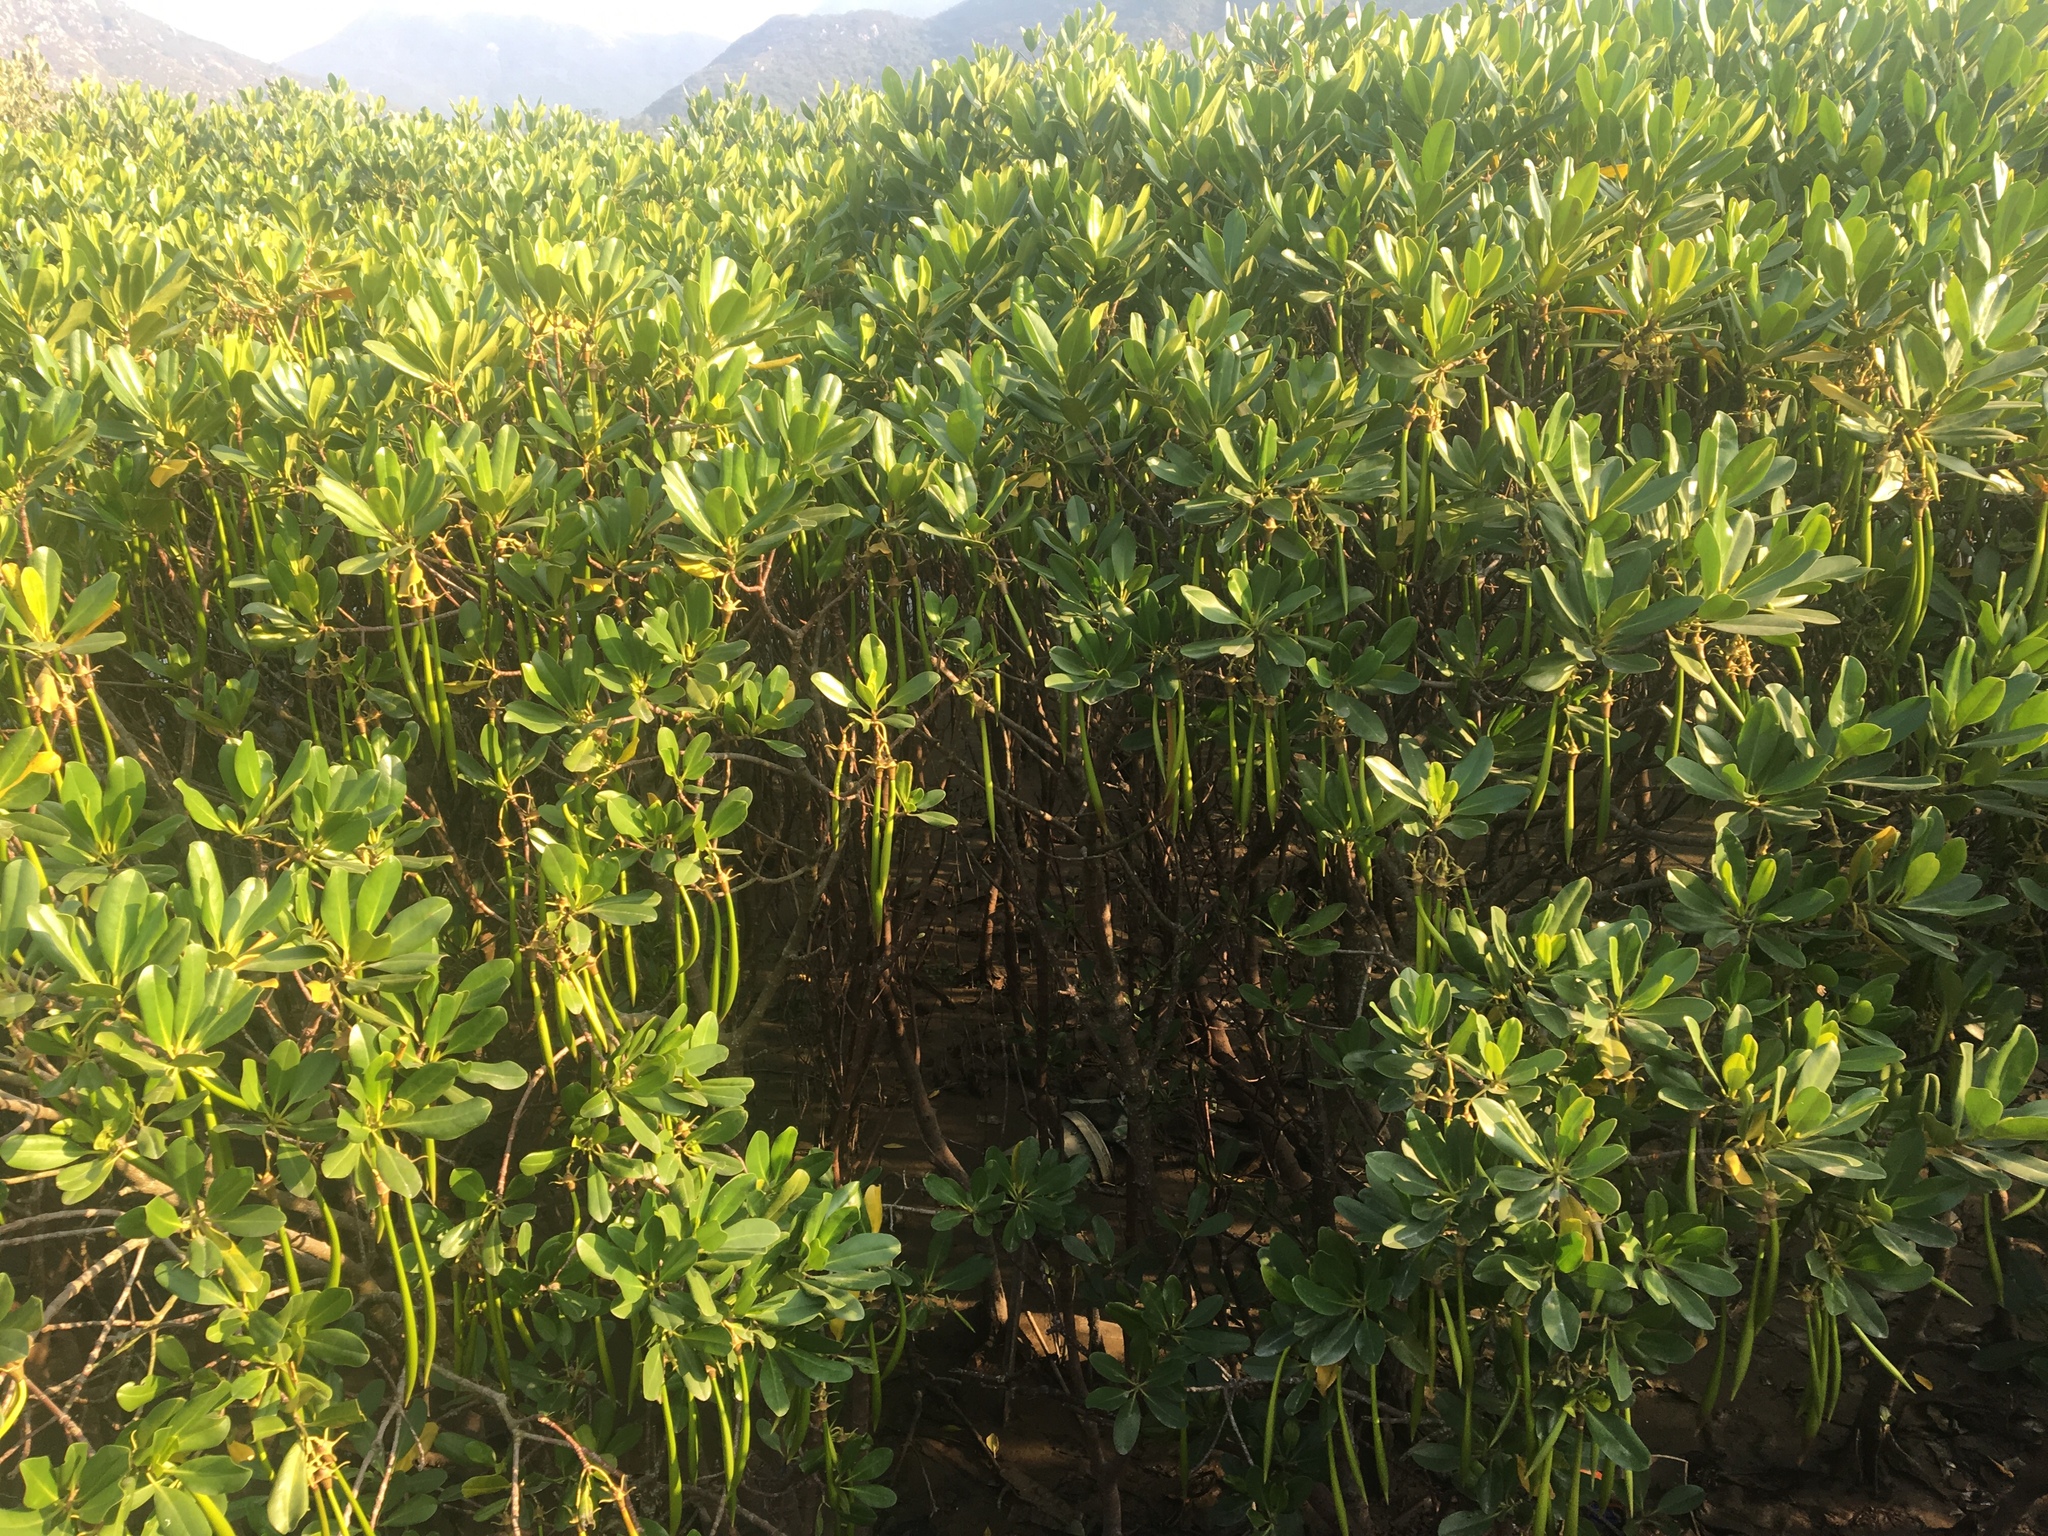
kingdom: Plantae
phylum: Tracheophyta
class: Magnoliopsida
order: Malpighiales
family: Rhizophoraceae
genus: Kandelia
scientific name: Kandelia obovata
